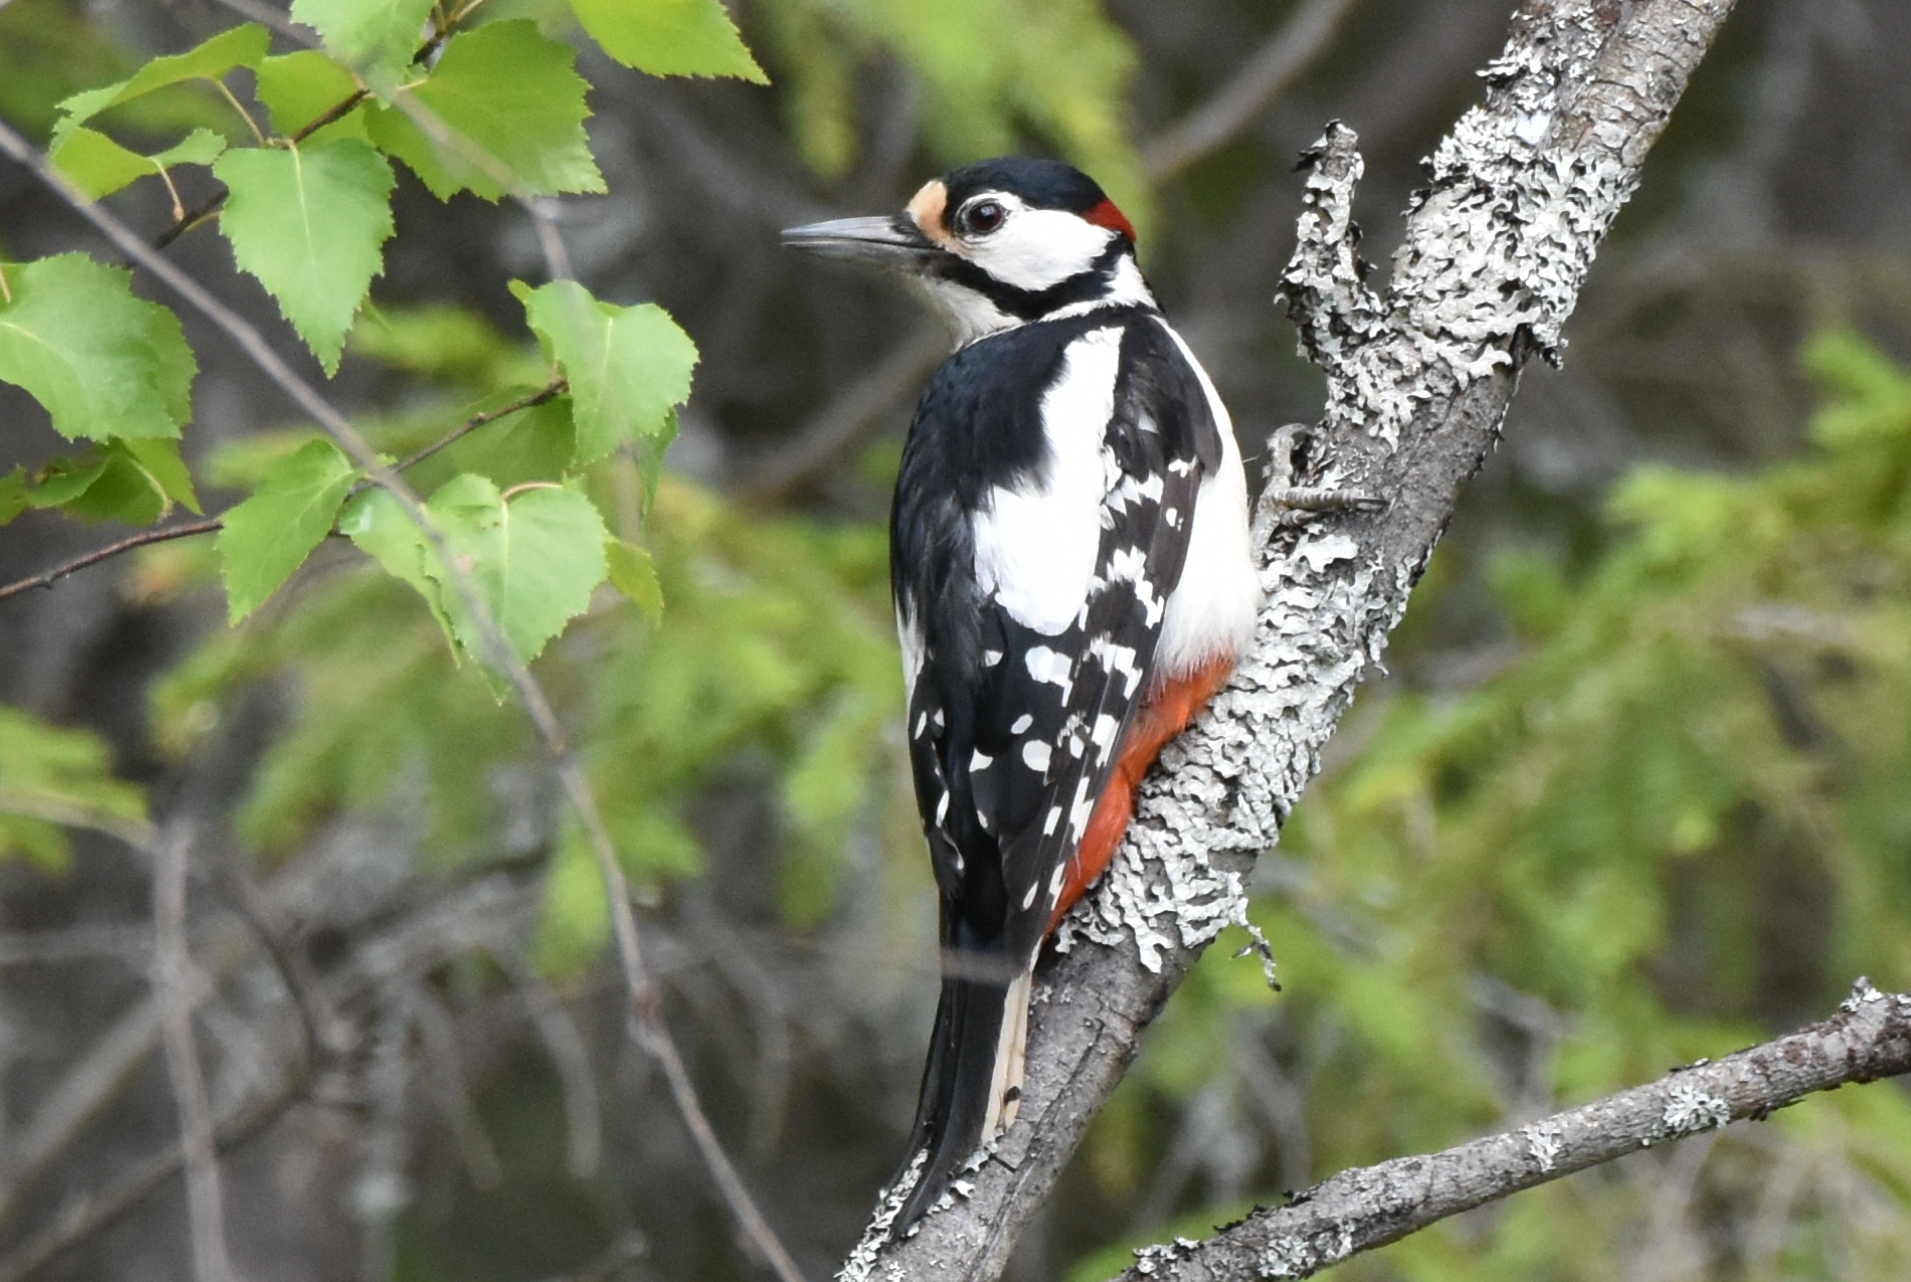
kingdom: Animalia
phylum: Chordata
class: Aves
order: Piciformes
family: Picidae
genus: Dendrocopos
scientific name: Dendrocopos major
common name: Great spotted woodpecker
